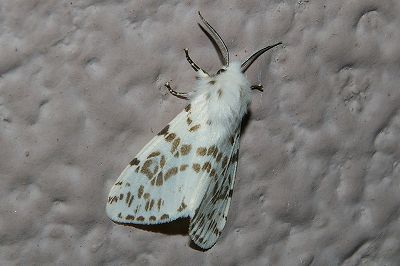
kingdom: Animalia
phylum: Arthropoda
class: Insecta
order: Lepidoptera
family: Erebidae
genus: Hyphantria
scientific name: Hyphantria cunea
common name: American white moth
